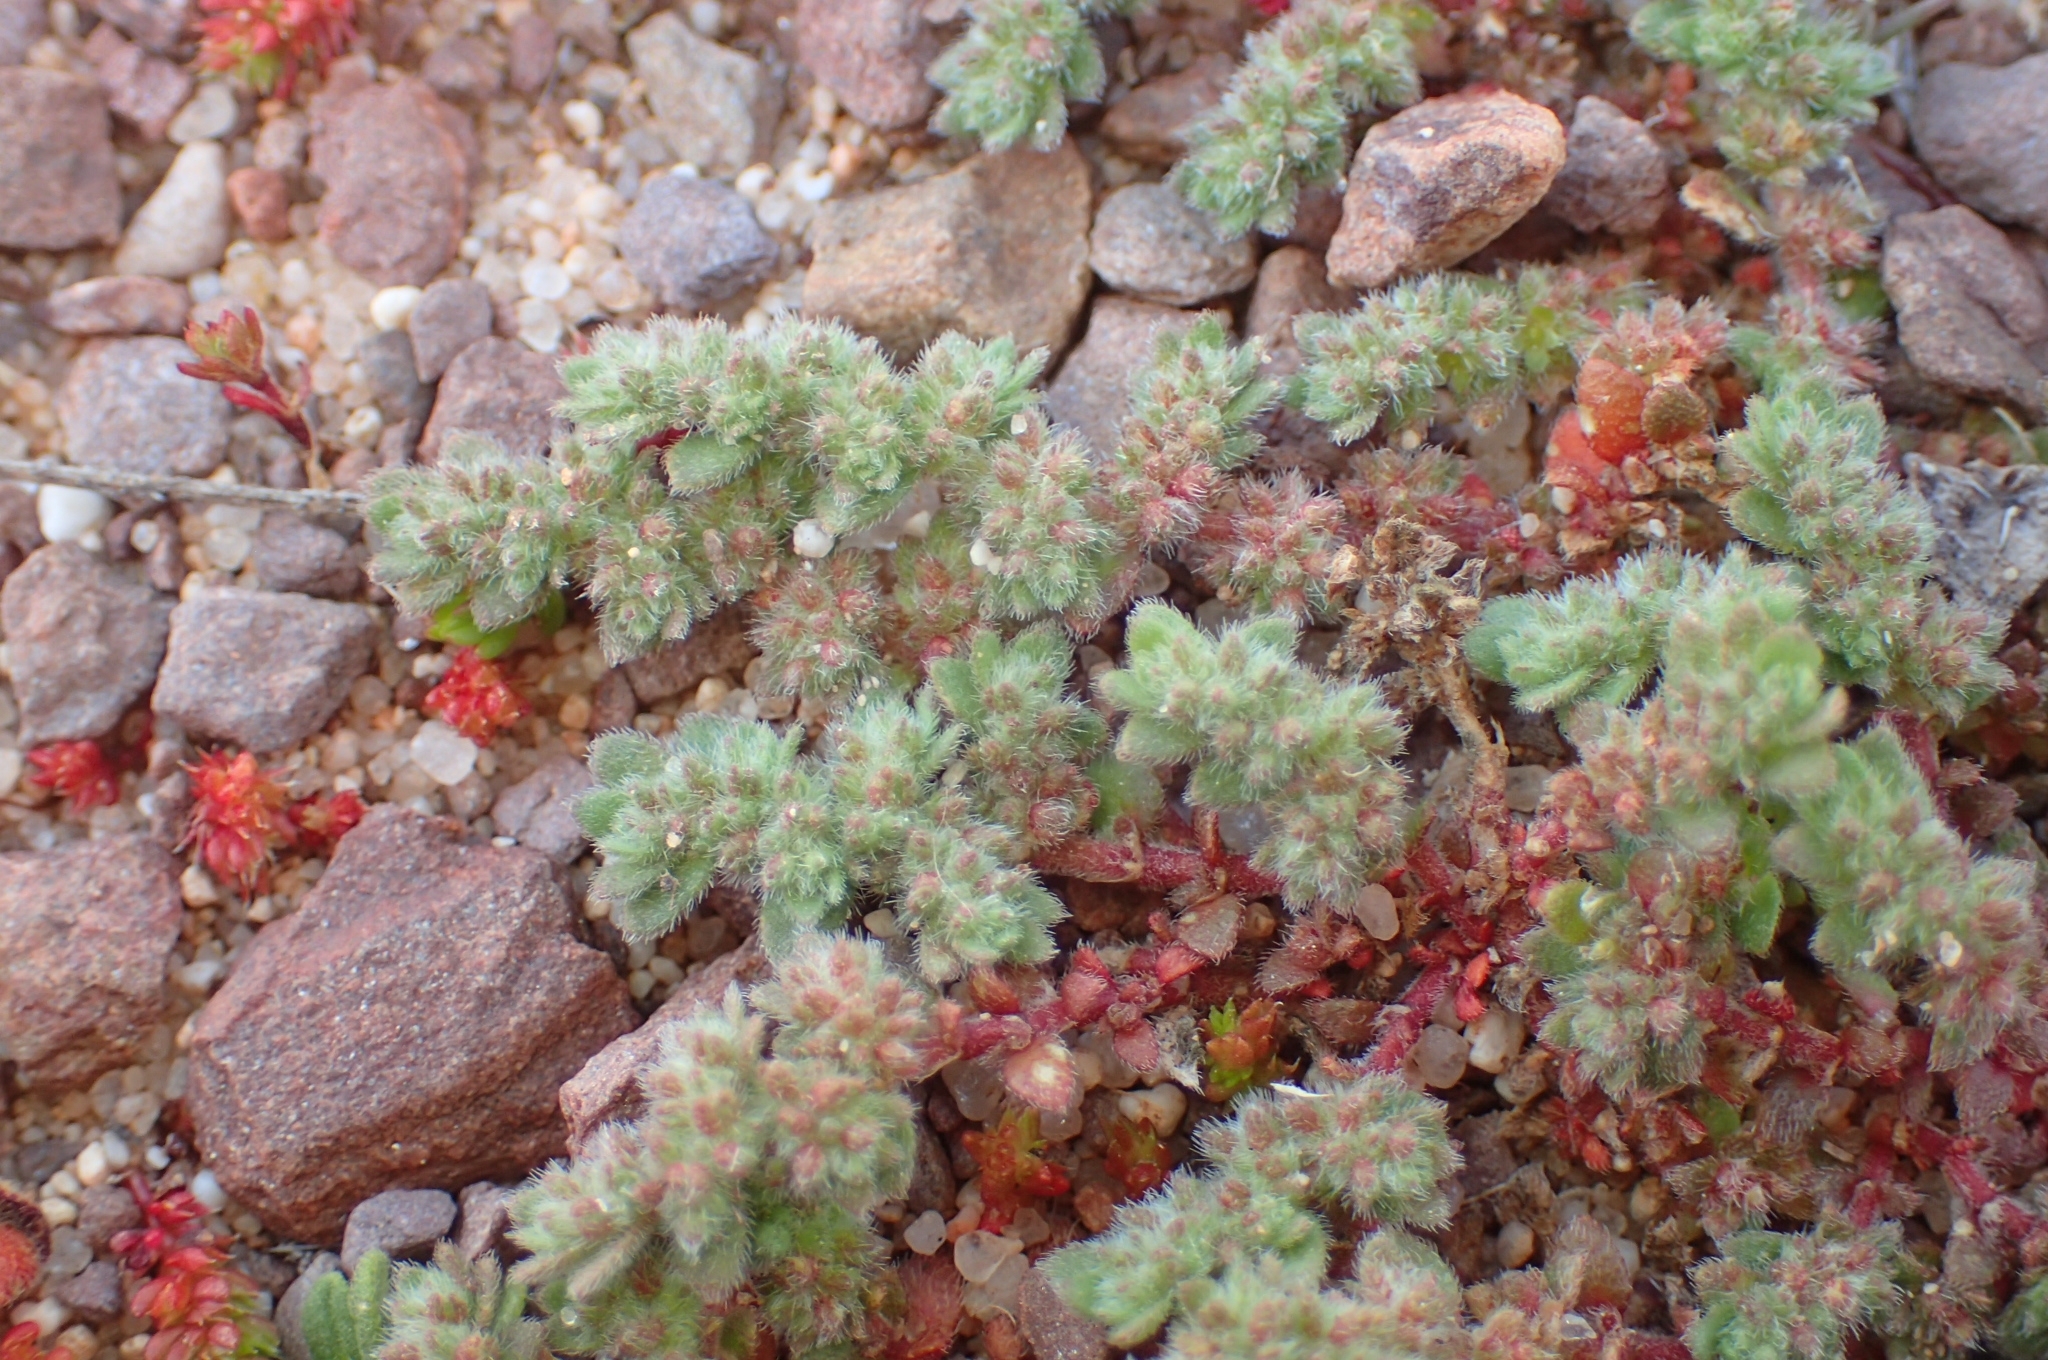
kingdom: Plantae
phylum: Tracheophyta
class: Magnoliopsida
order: Caryophyllales
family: Caryophyllaceae
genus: Herniaria
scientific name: Herniaria cinerea
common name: Hairy rupturewort
